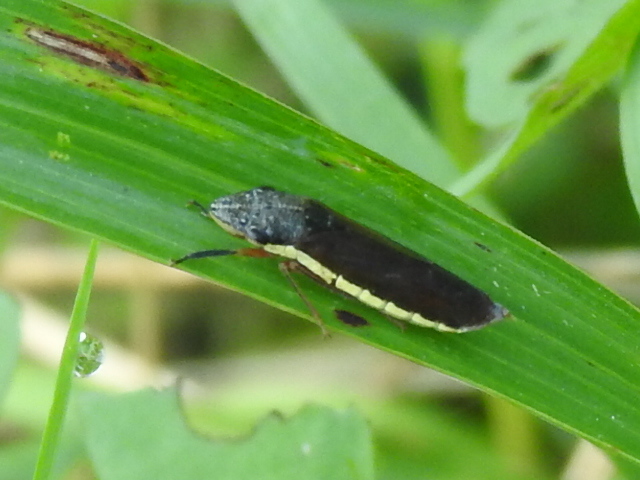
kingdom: Animalia
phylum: Arthropoda
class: Insecta
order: Hemiptera
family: Cicadellidae
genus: Homalodisca
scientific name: Homalodisca insolita
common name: Johnson grass sharpshooter
